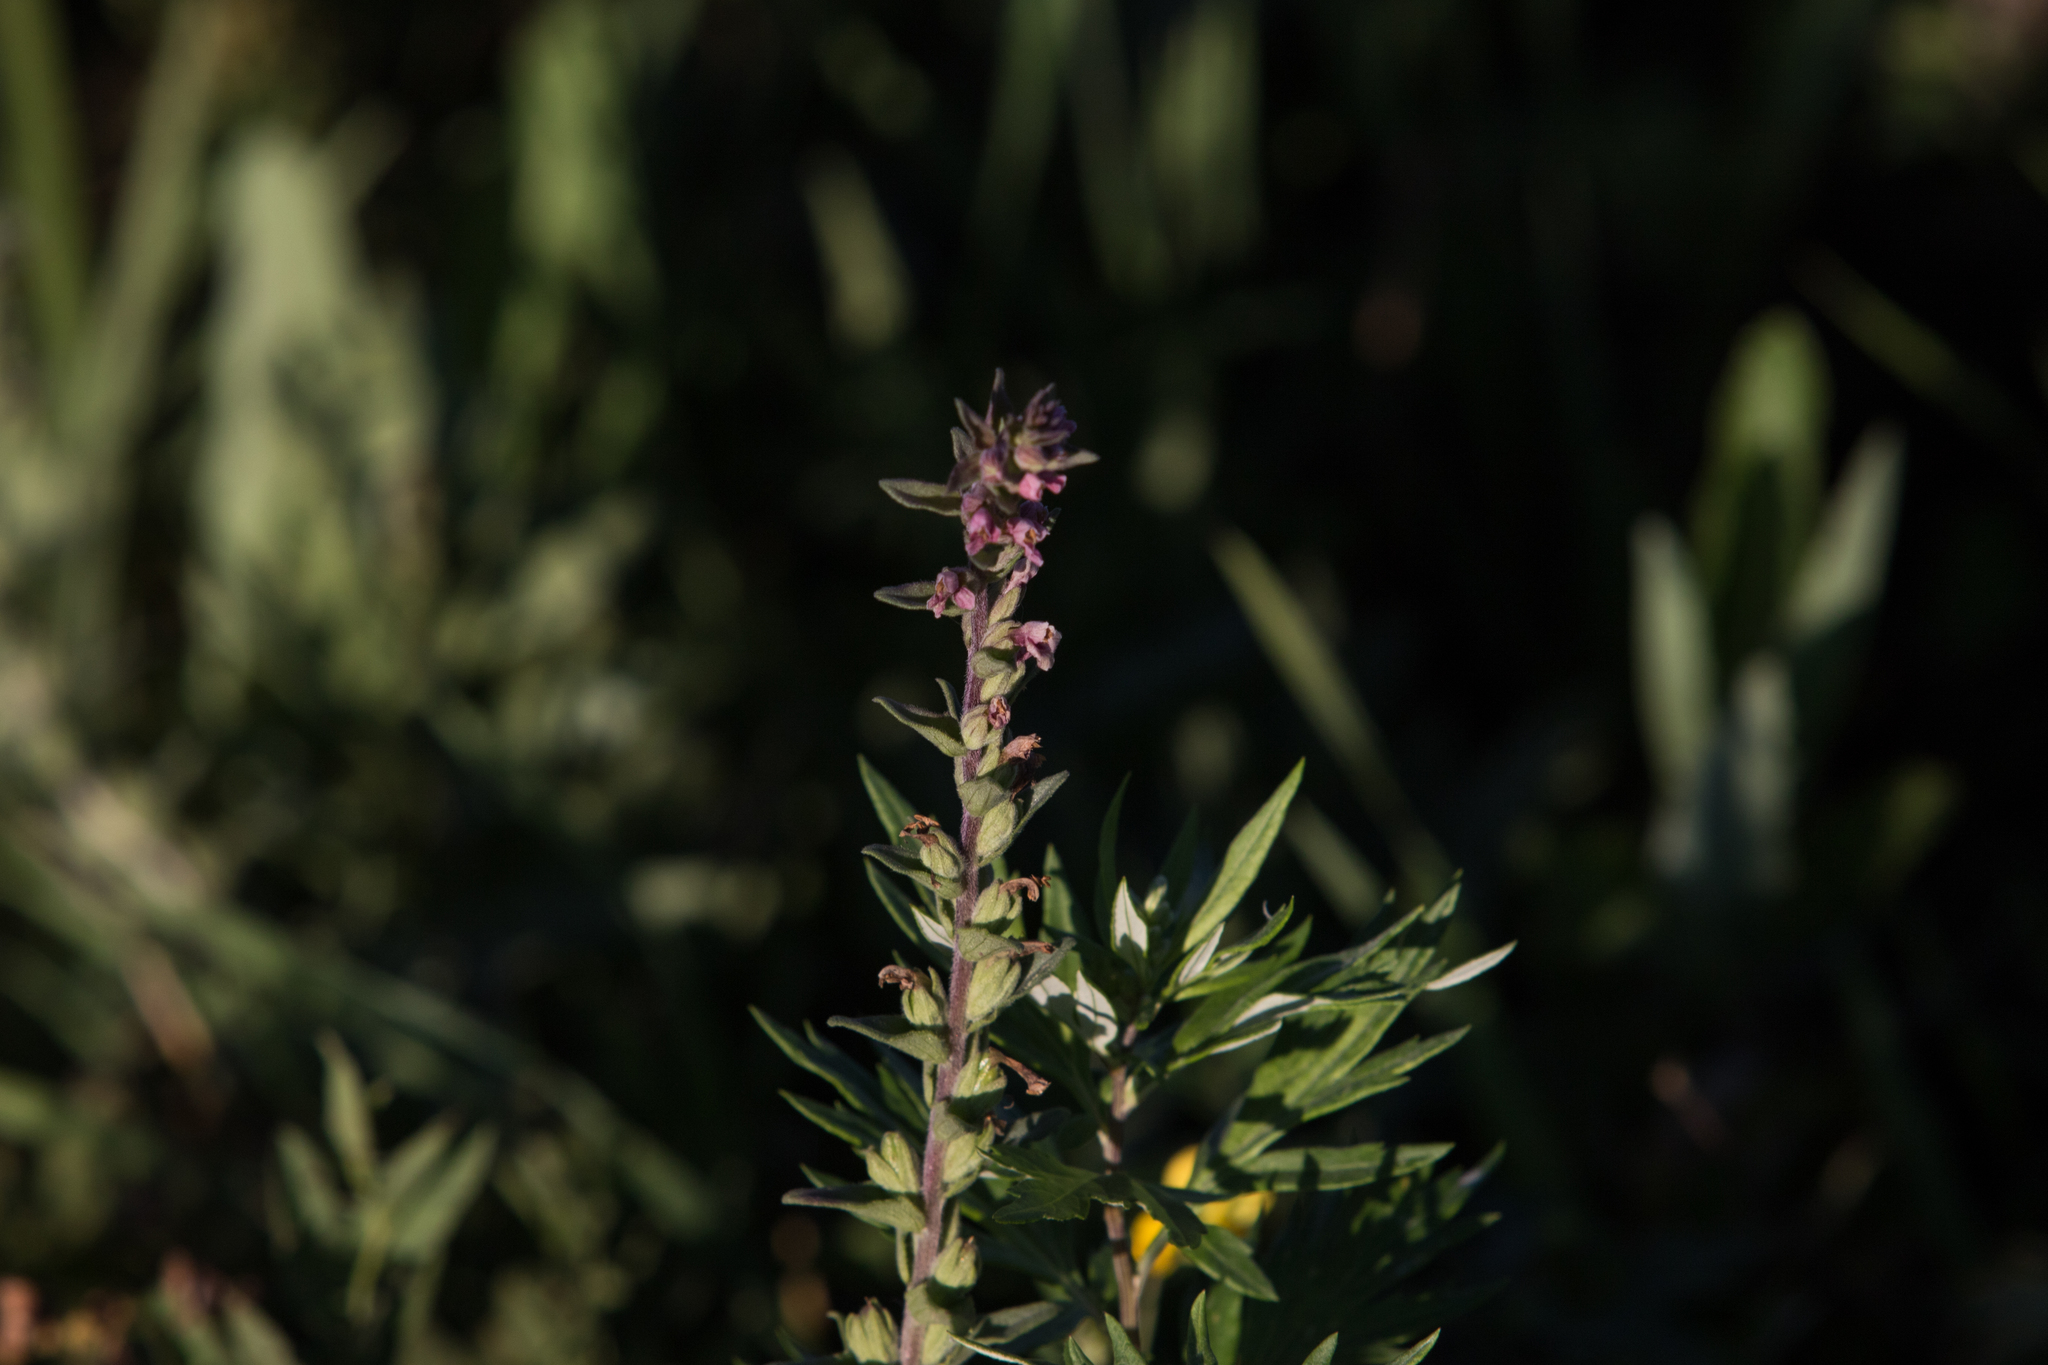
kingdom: Plantae
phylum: Tracheophyta
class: Magnoliopsida
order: Lamiales
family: Orobanchaceae
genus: Odontites
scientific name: Odontites vulgaris
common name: Broomrape
